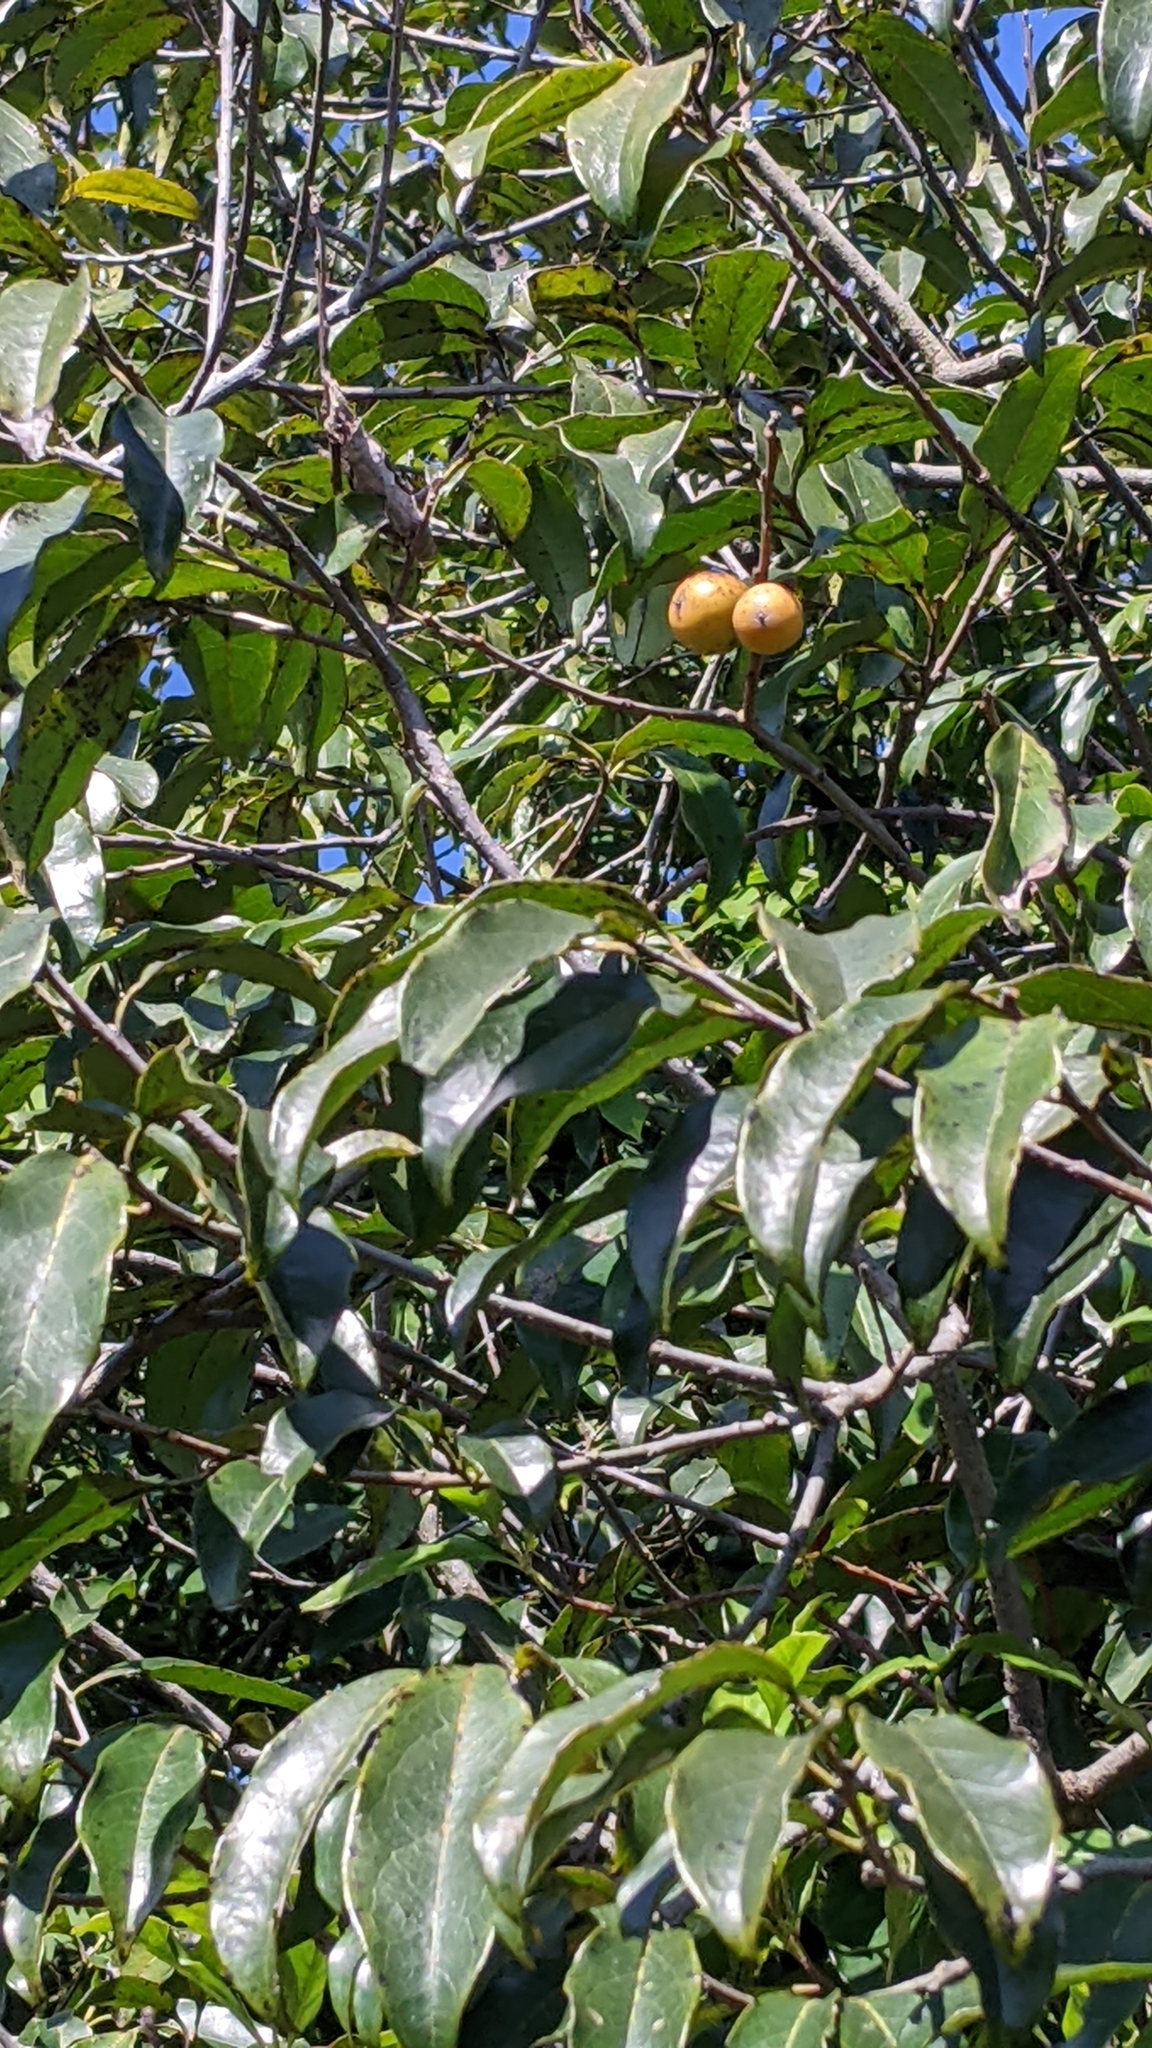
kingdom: Plantae
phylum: Tracheophyta
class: Magnoliopsida
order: Ericales
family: Ebenaceae
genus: Diospyros
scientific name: Diospyros morrisiana
